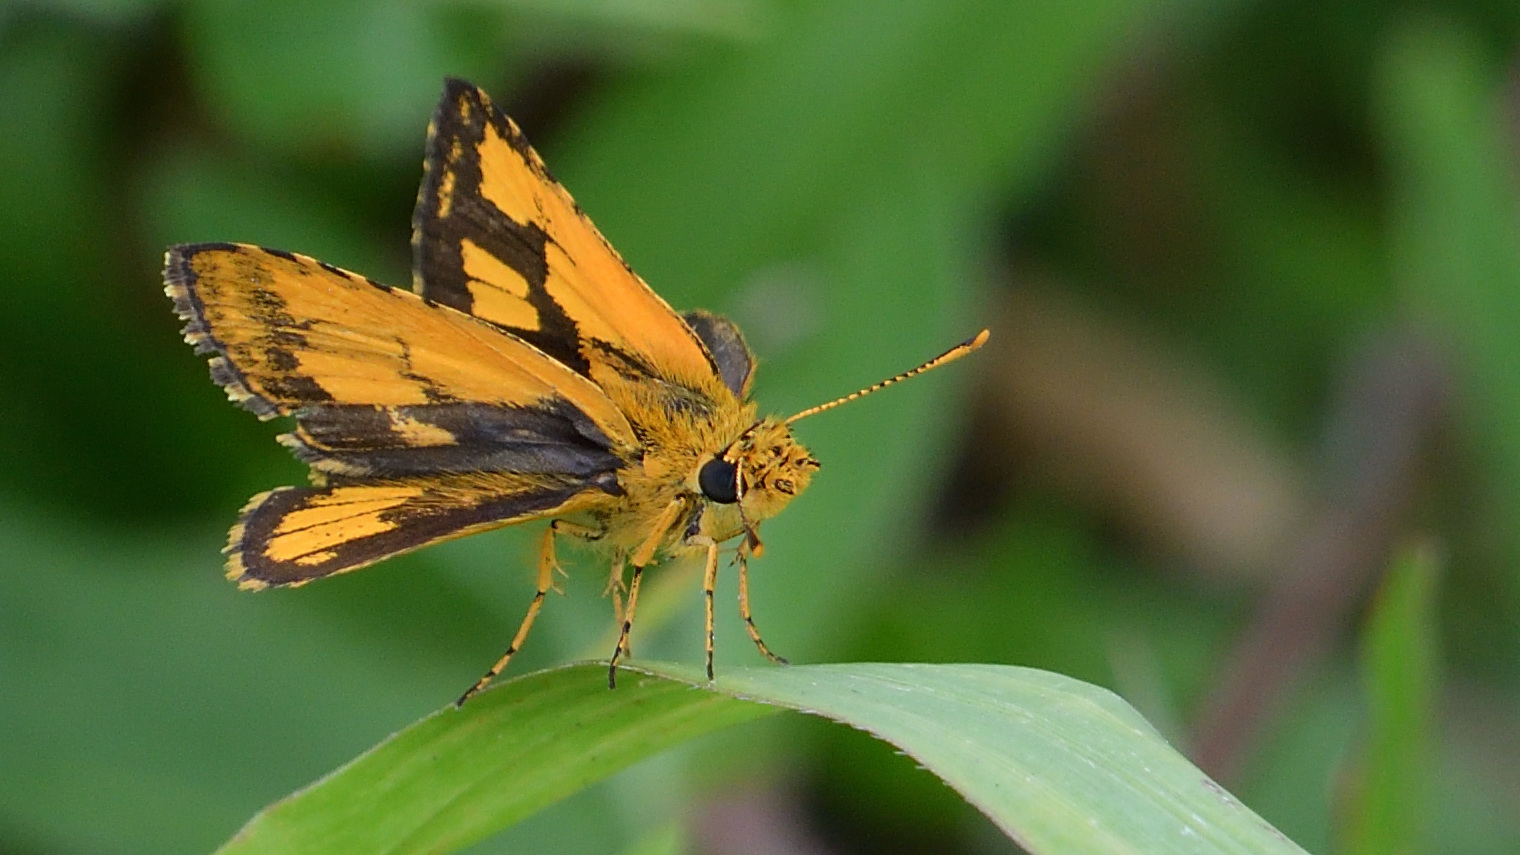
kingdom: Animalia
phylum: Arthropoda
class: Insecta
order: Lepidoptera
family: Hesperiidae
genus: Ampittia
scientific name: Ampittia dioscorides
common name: Common bush hopper
